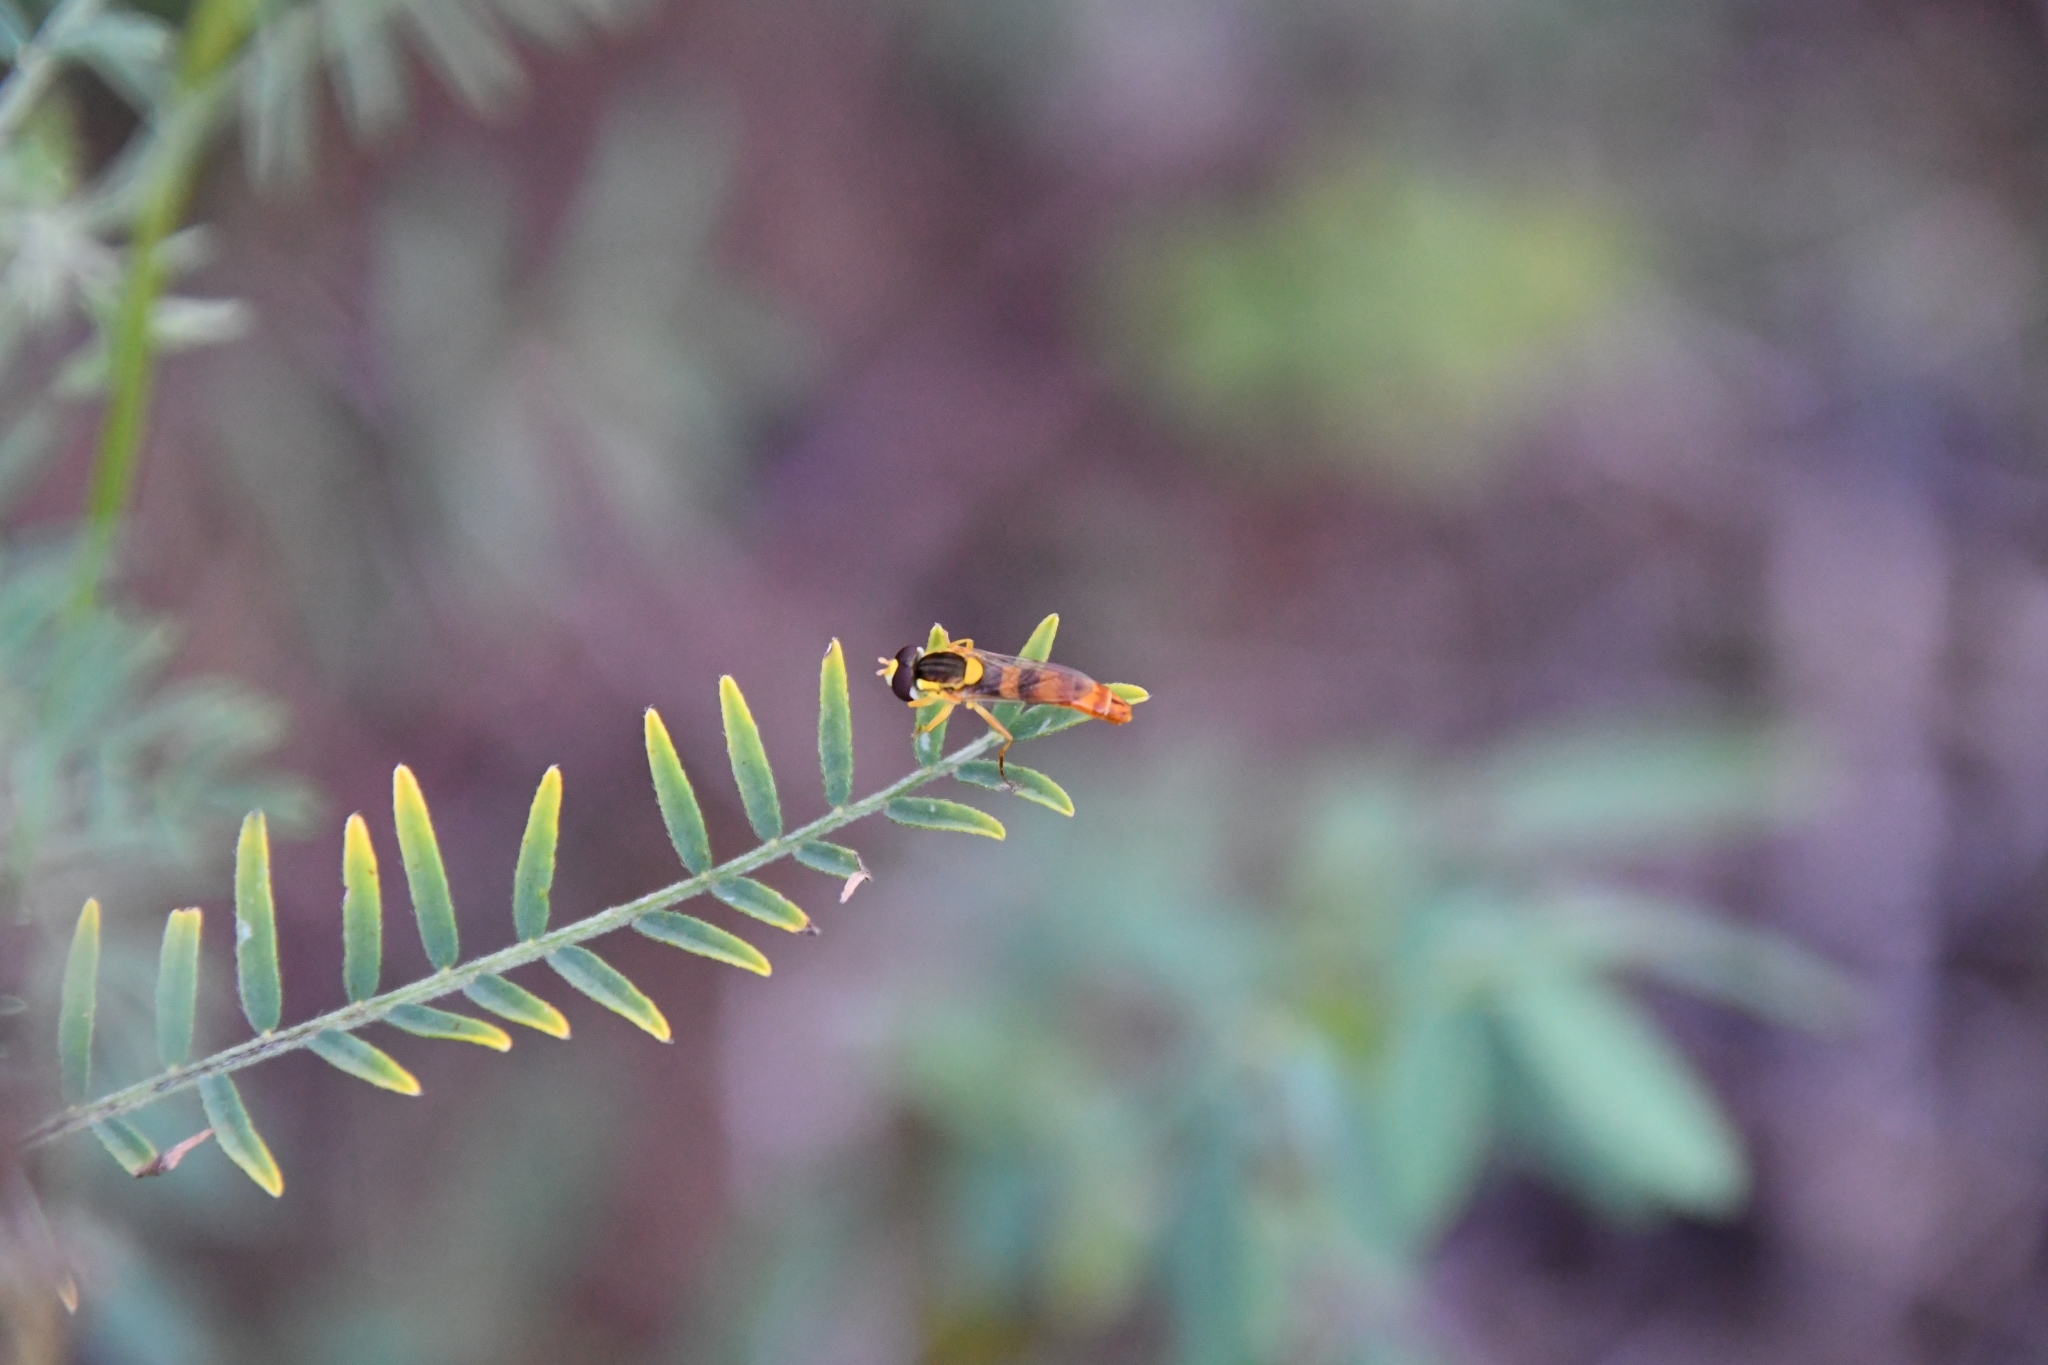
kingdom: Animalia
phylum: Arthropoda
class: Insecta
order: Diptera
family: Syrphidae
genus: Sphaerophoria
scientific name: Sphaerophoria scripta
